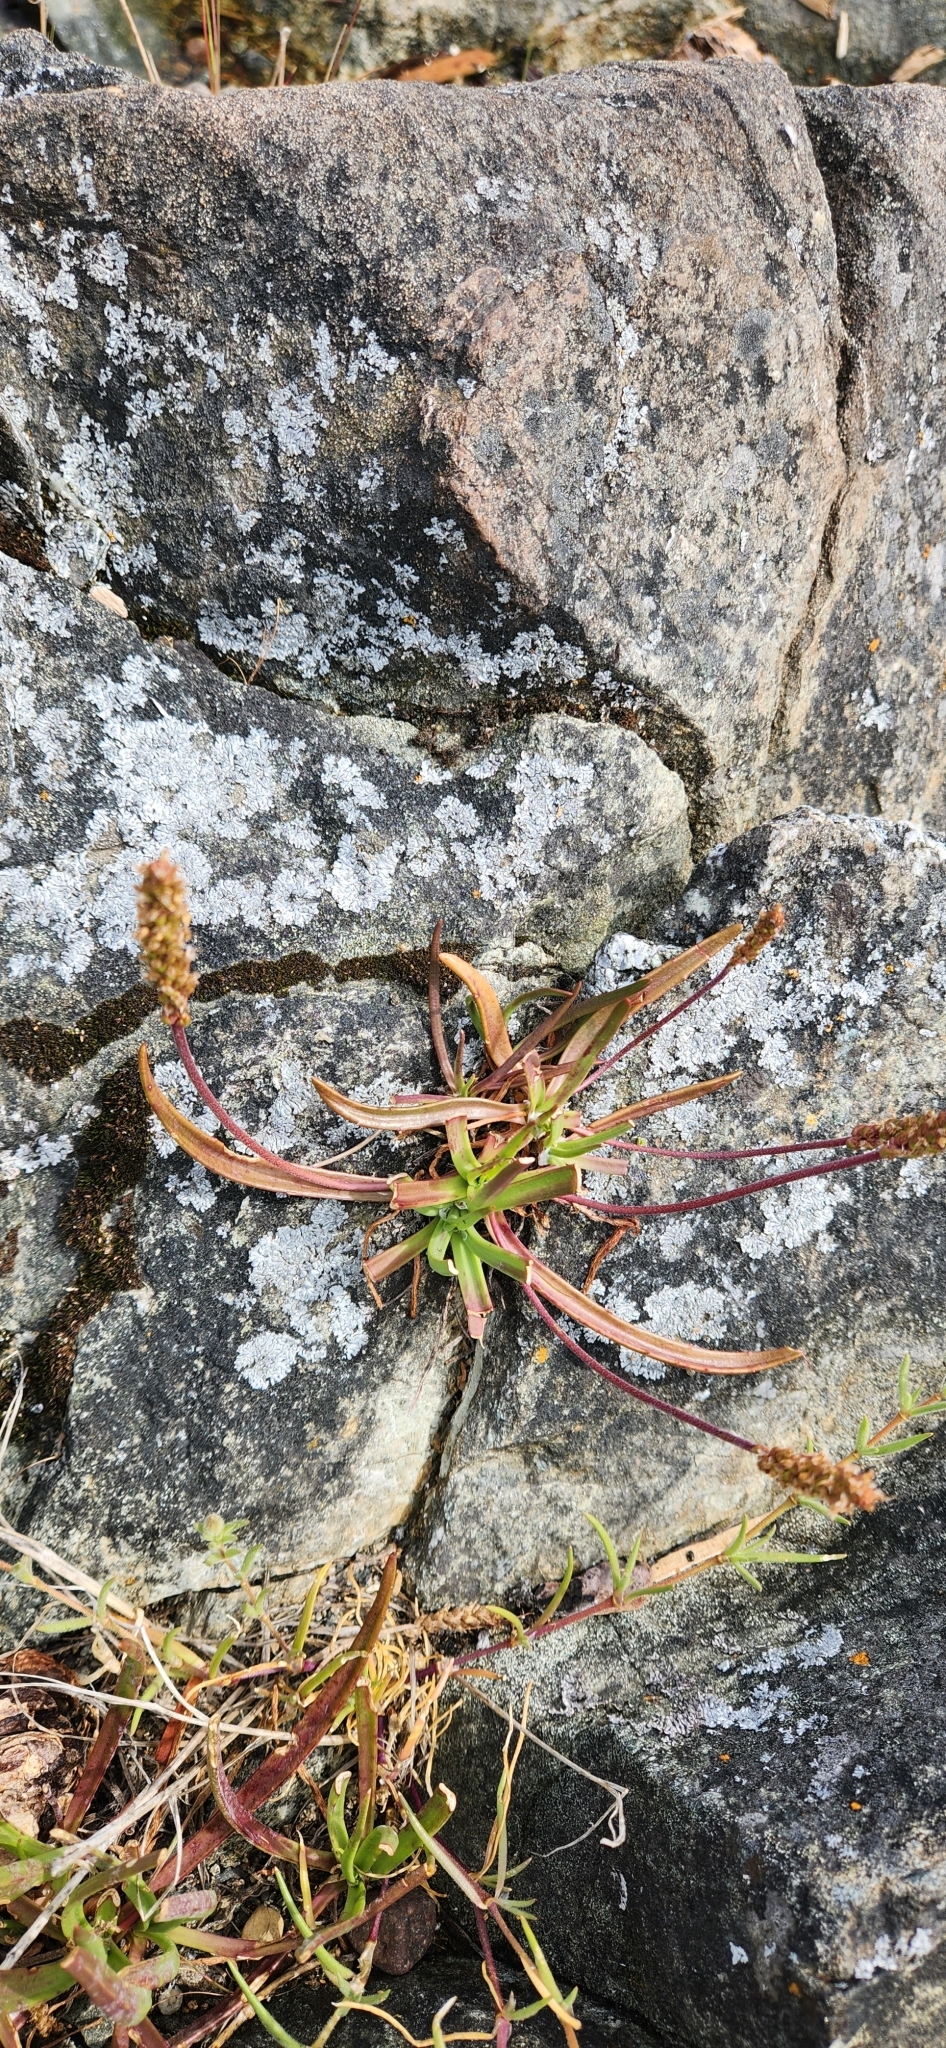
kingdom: Plantae
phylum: Tracheophyta
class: Magnoliopsida
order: Lamiales
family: Plantaginaceae
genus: Plantago
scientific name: Plantago maritima
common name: Sea plantain
